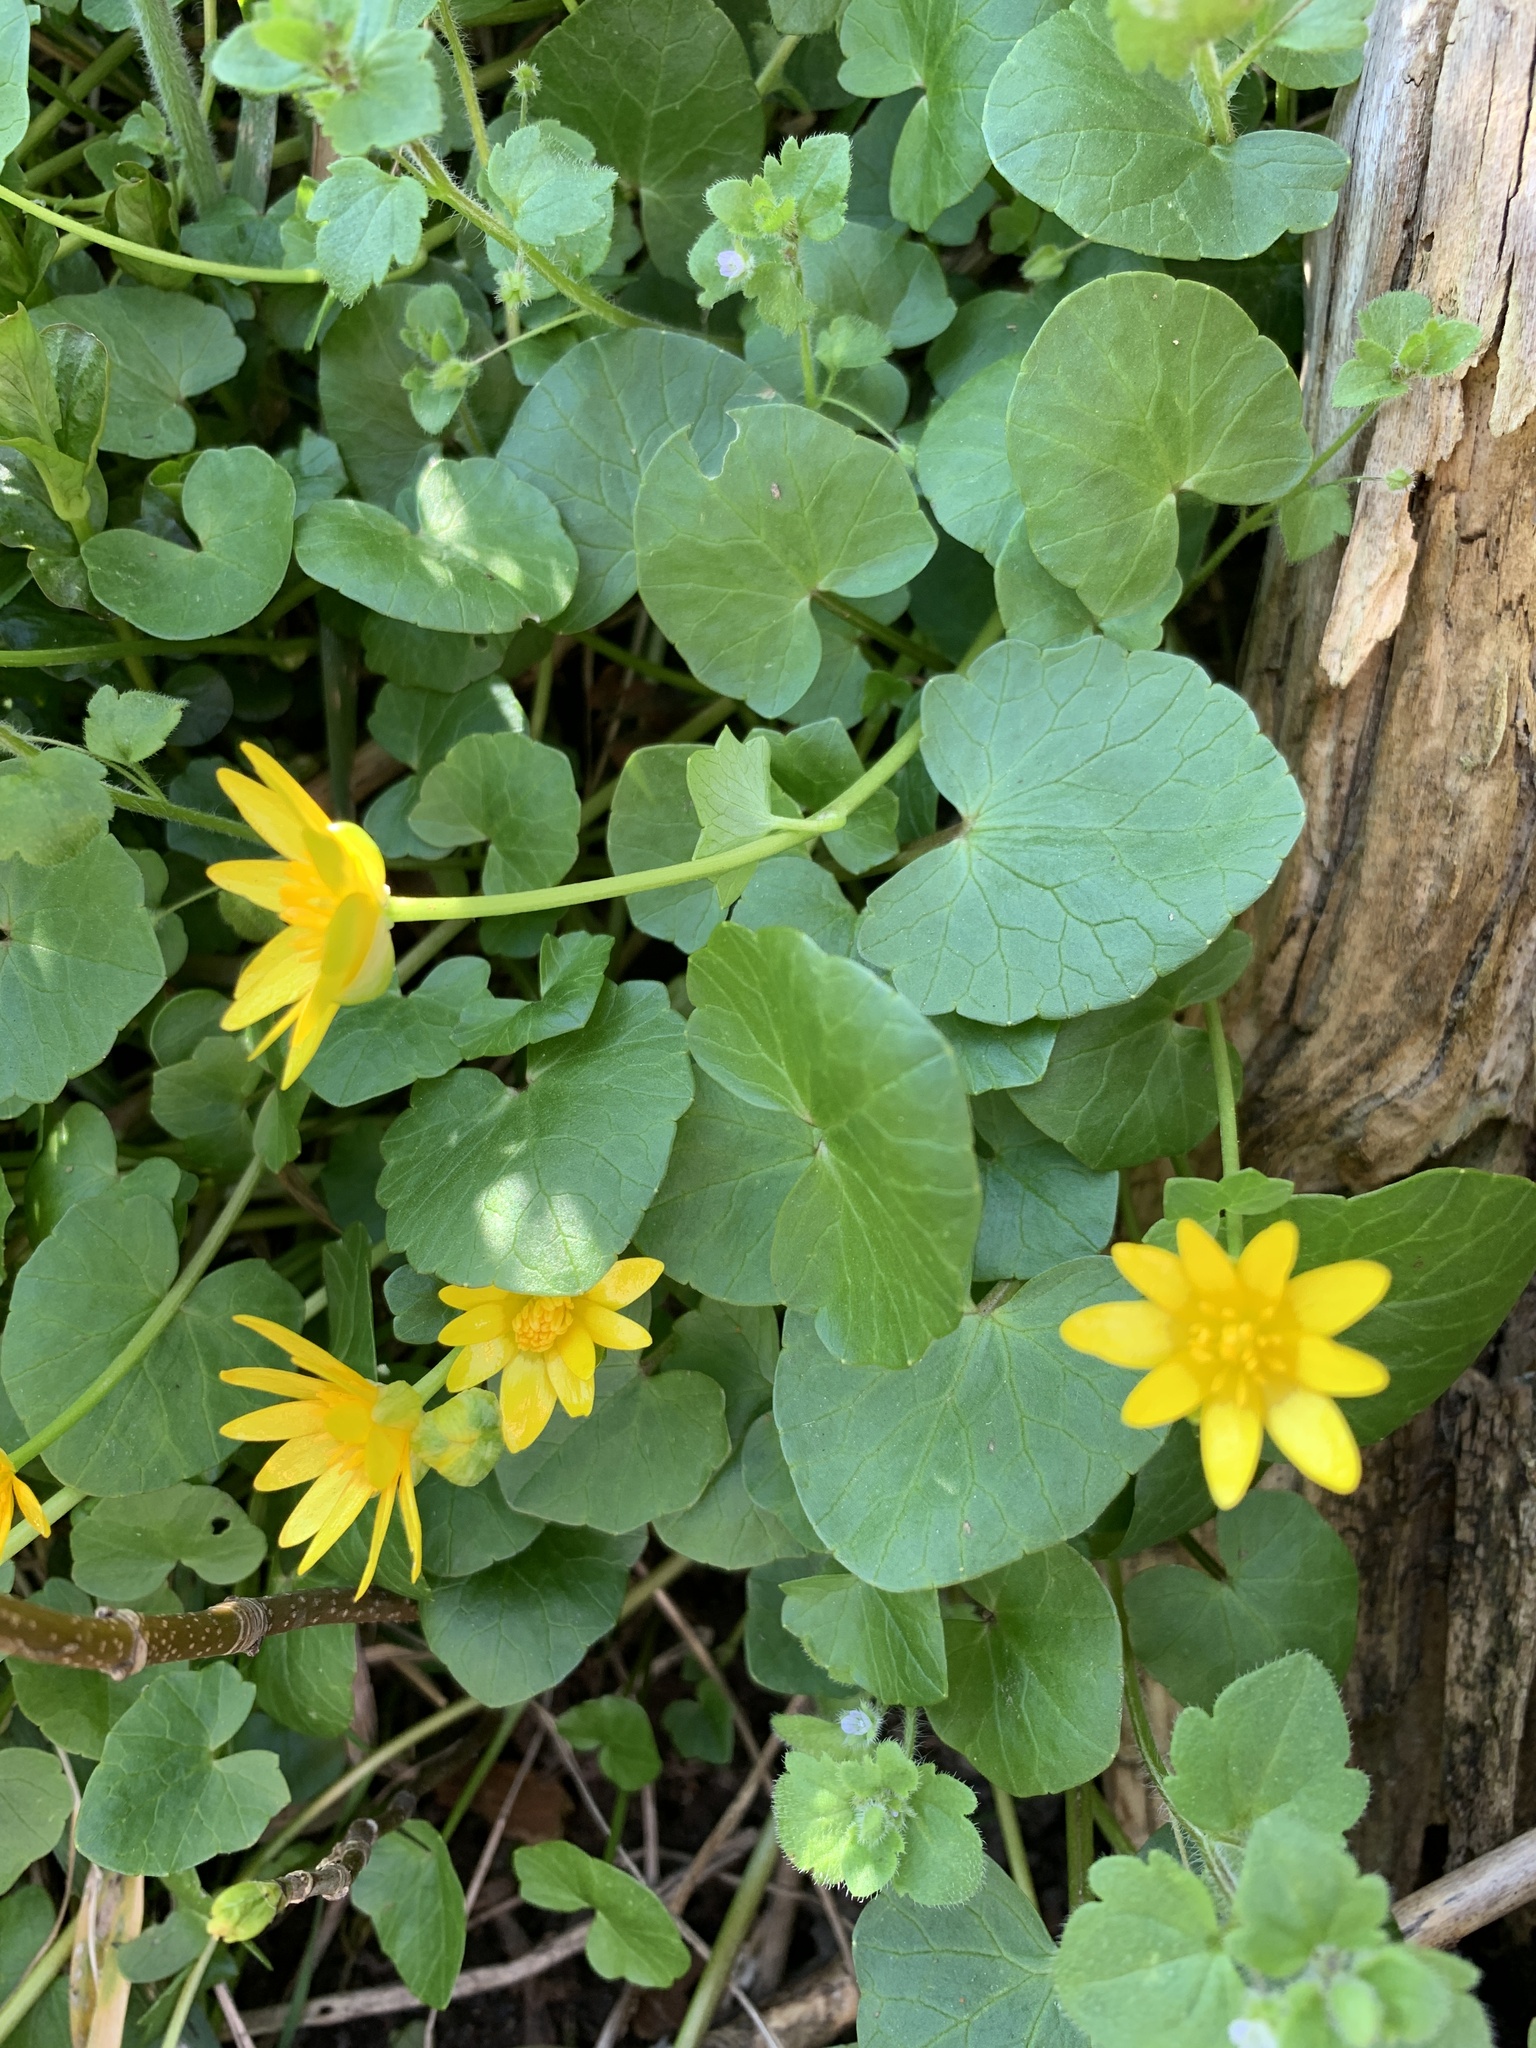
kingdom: Plantae
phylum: Tracheophyta
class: Magnoliopsida
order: Ranunculales
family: Ranunculaceae
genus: Ficaria
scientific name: Ficaria verna
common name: Lesser celandine
